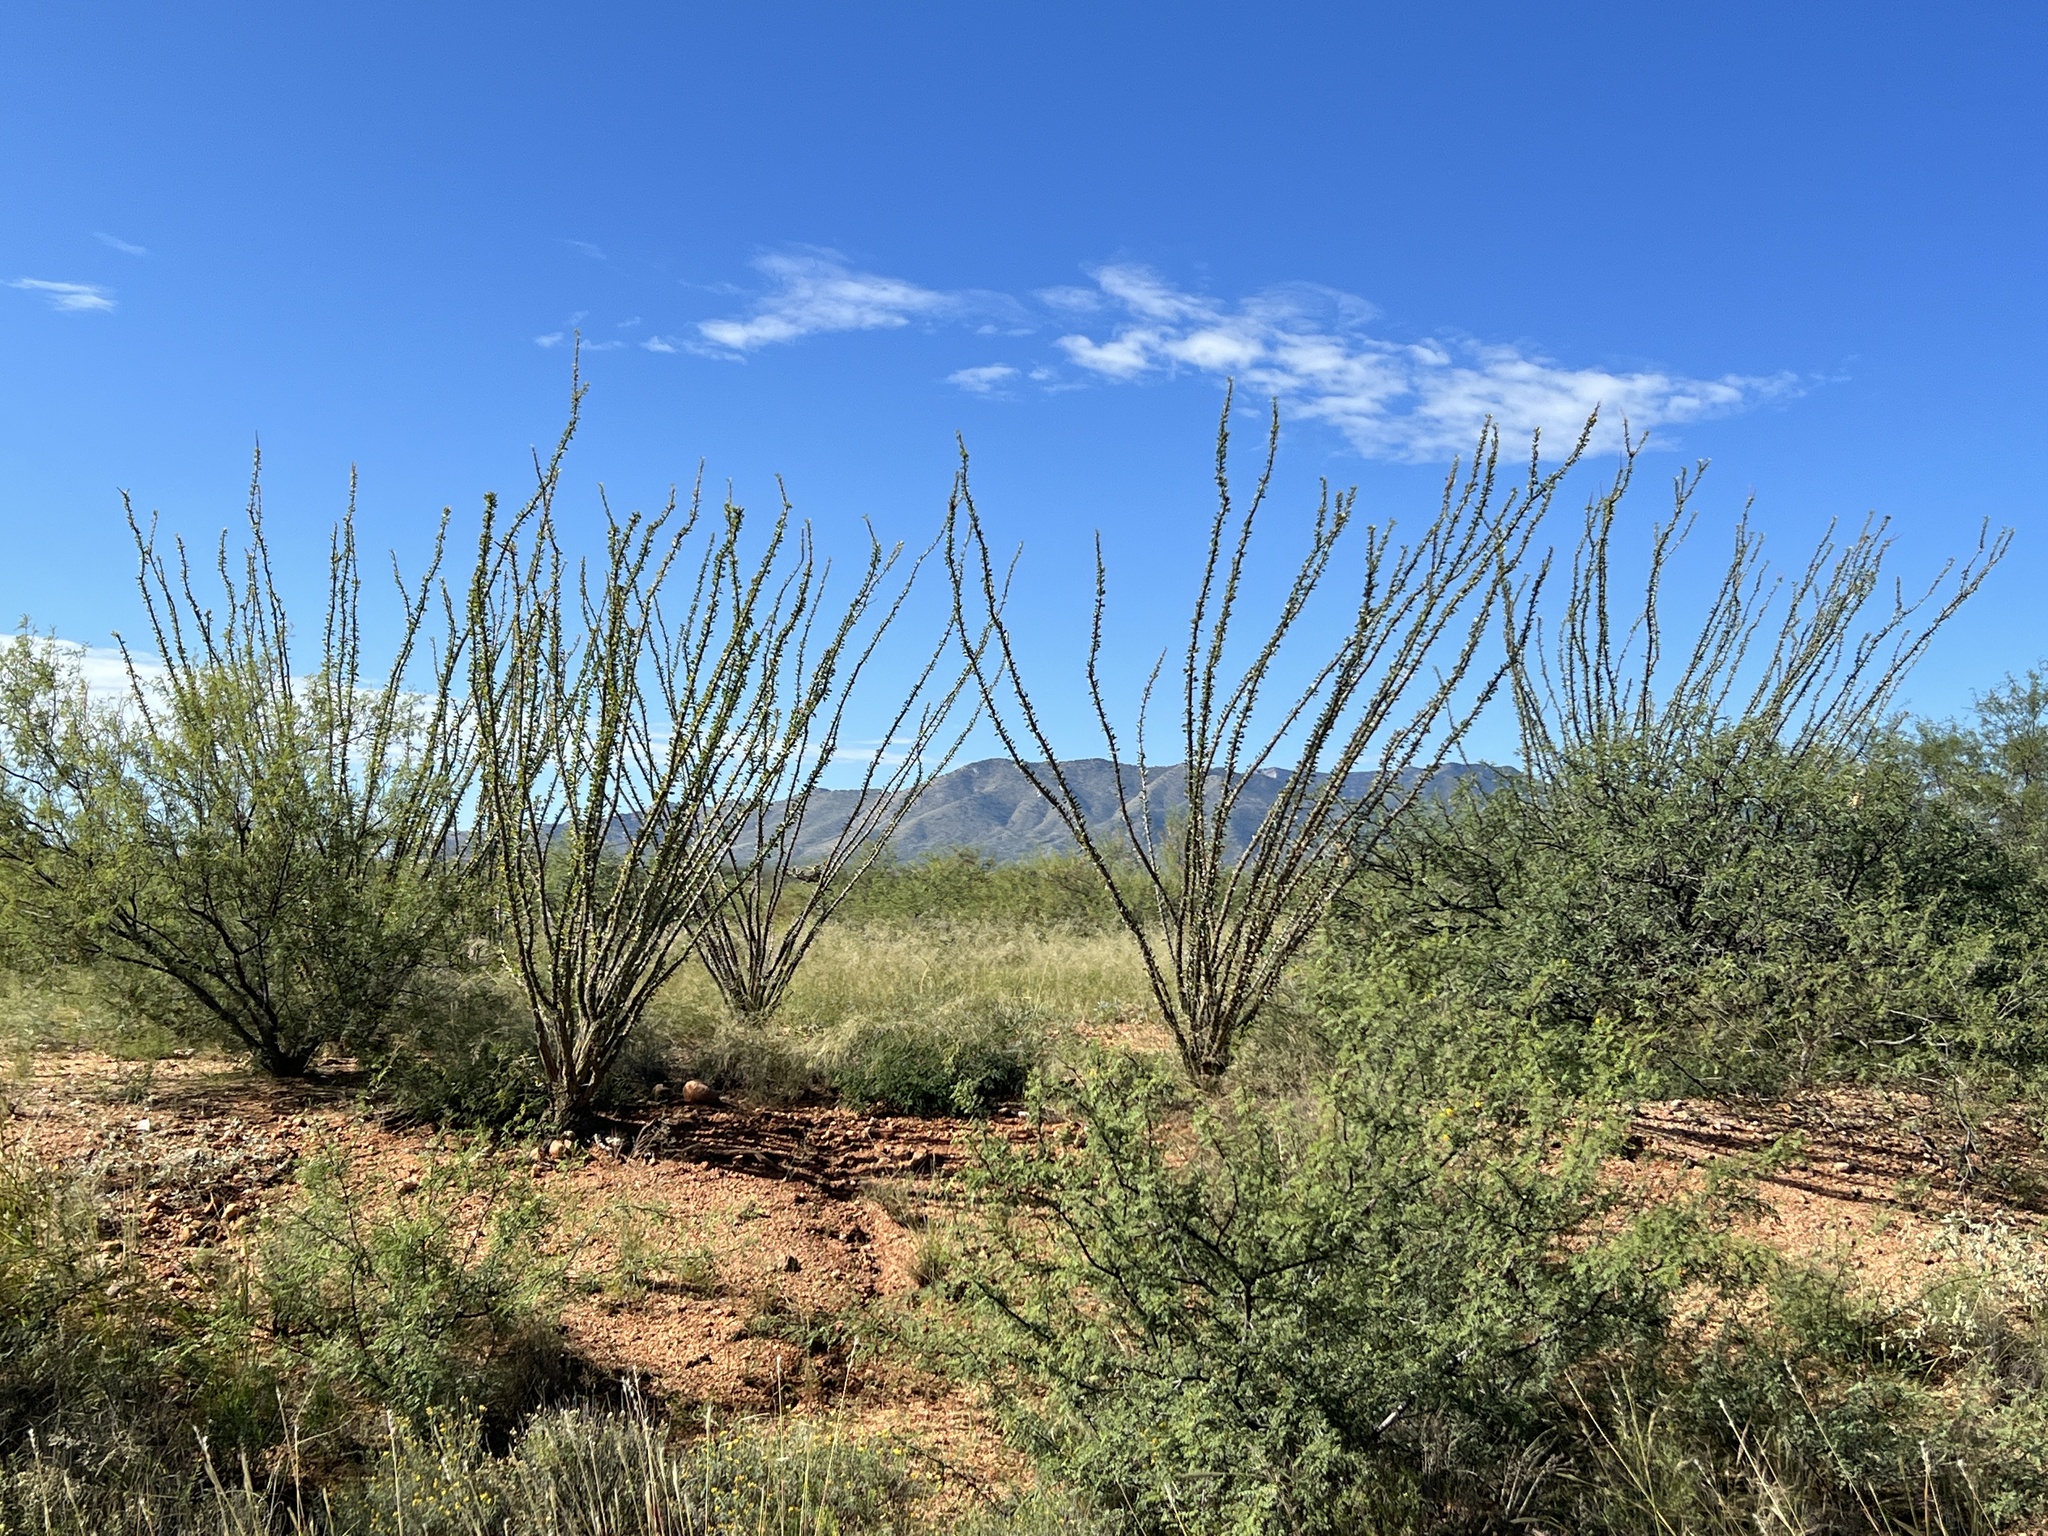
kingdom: Plantae
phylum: Tracheophyta
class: Magnoliopsida
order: Ericales
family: Fouquieriaceae
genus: Fouquieria
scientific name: Fouquieria splendens
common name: Vine-cactus
